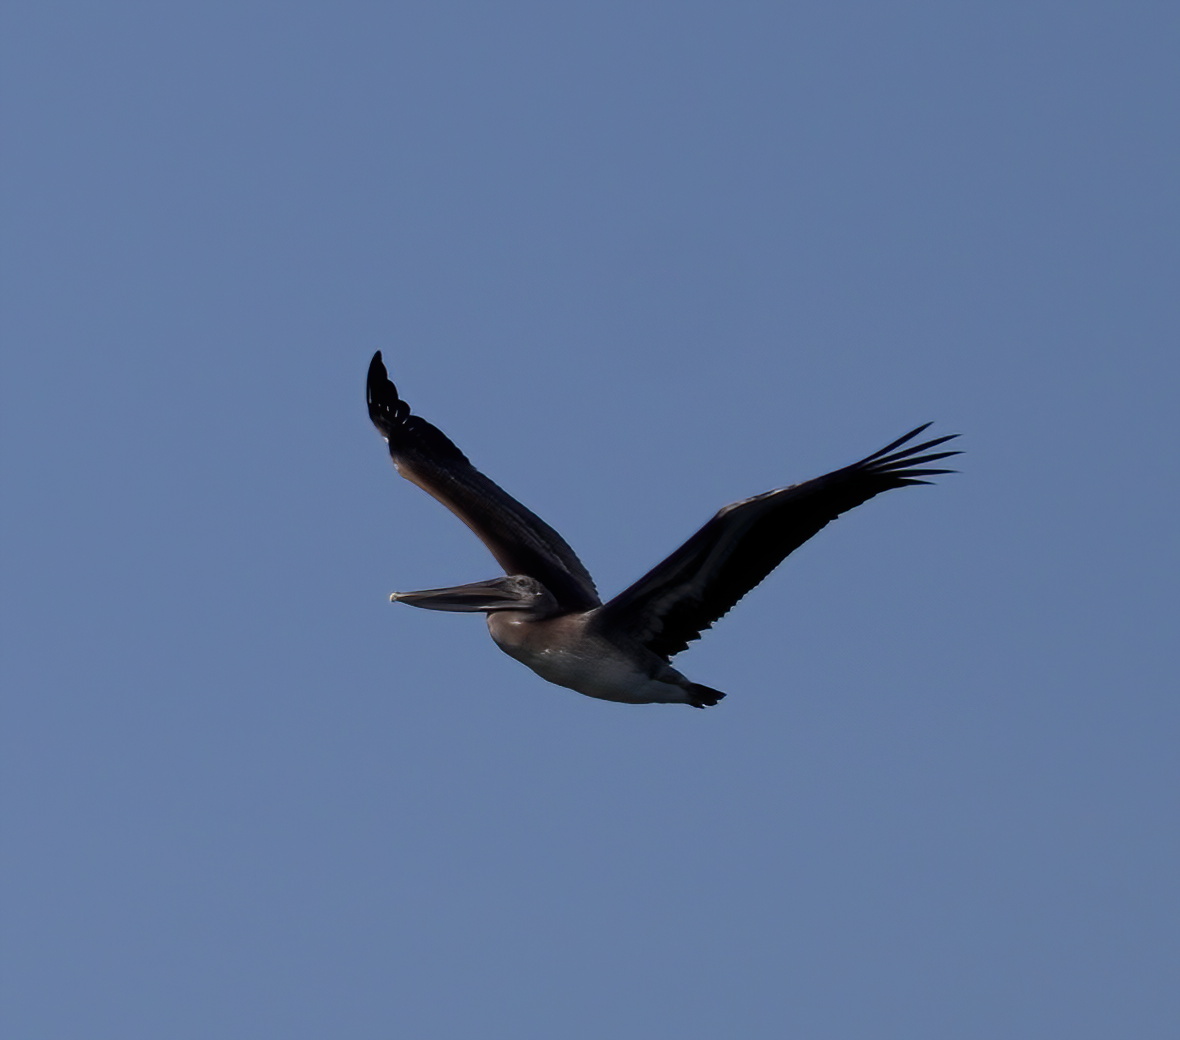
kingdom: Animalia
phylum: Chordata
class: Aves
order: Pelecaniformes
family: Pelecanidae
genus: Pelecanus
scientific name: Pelecanus occidentalis
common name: Brown pelican
